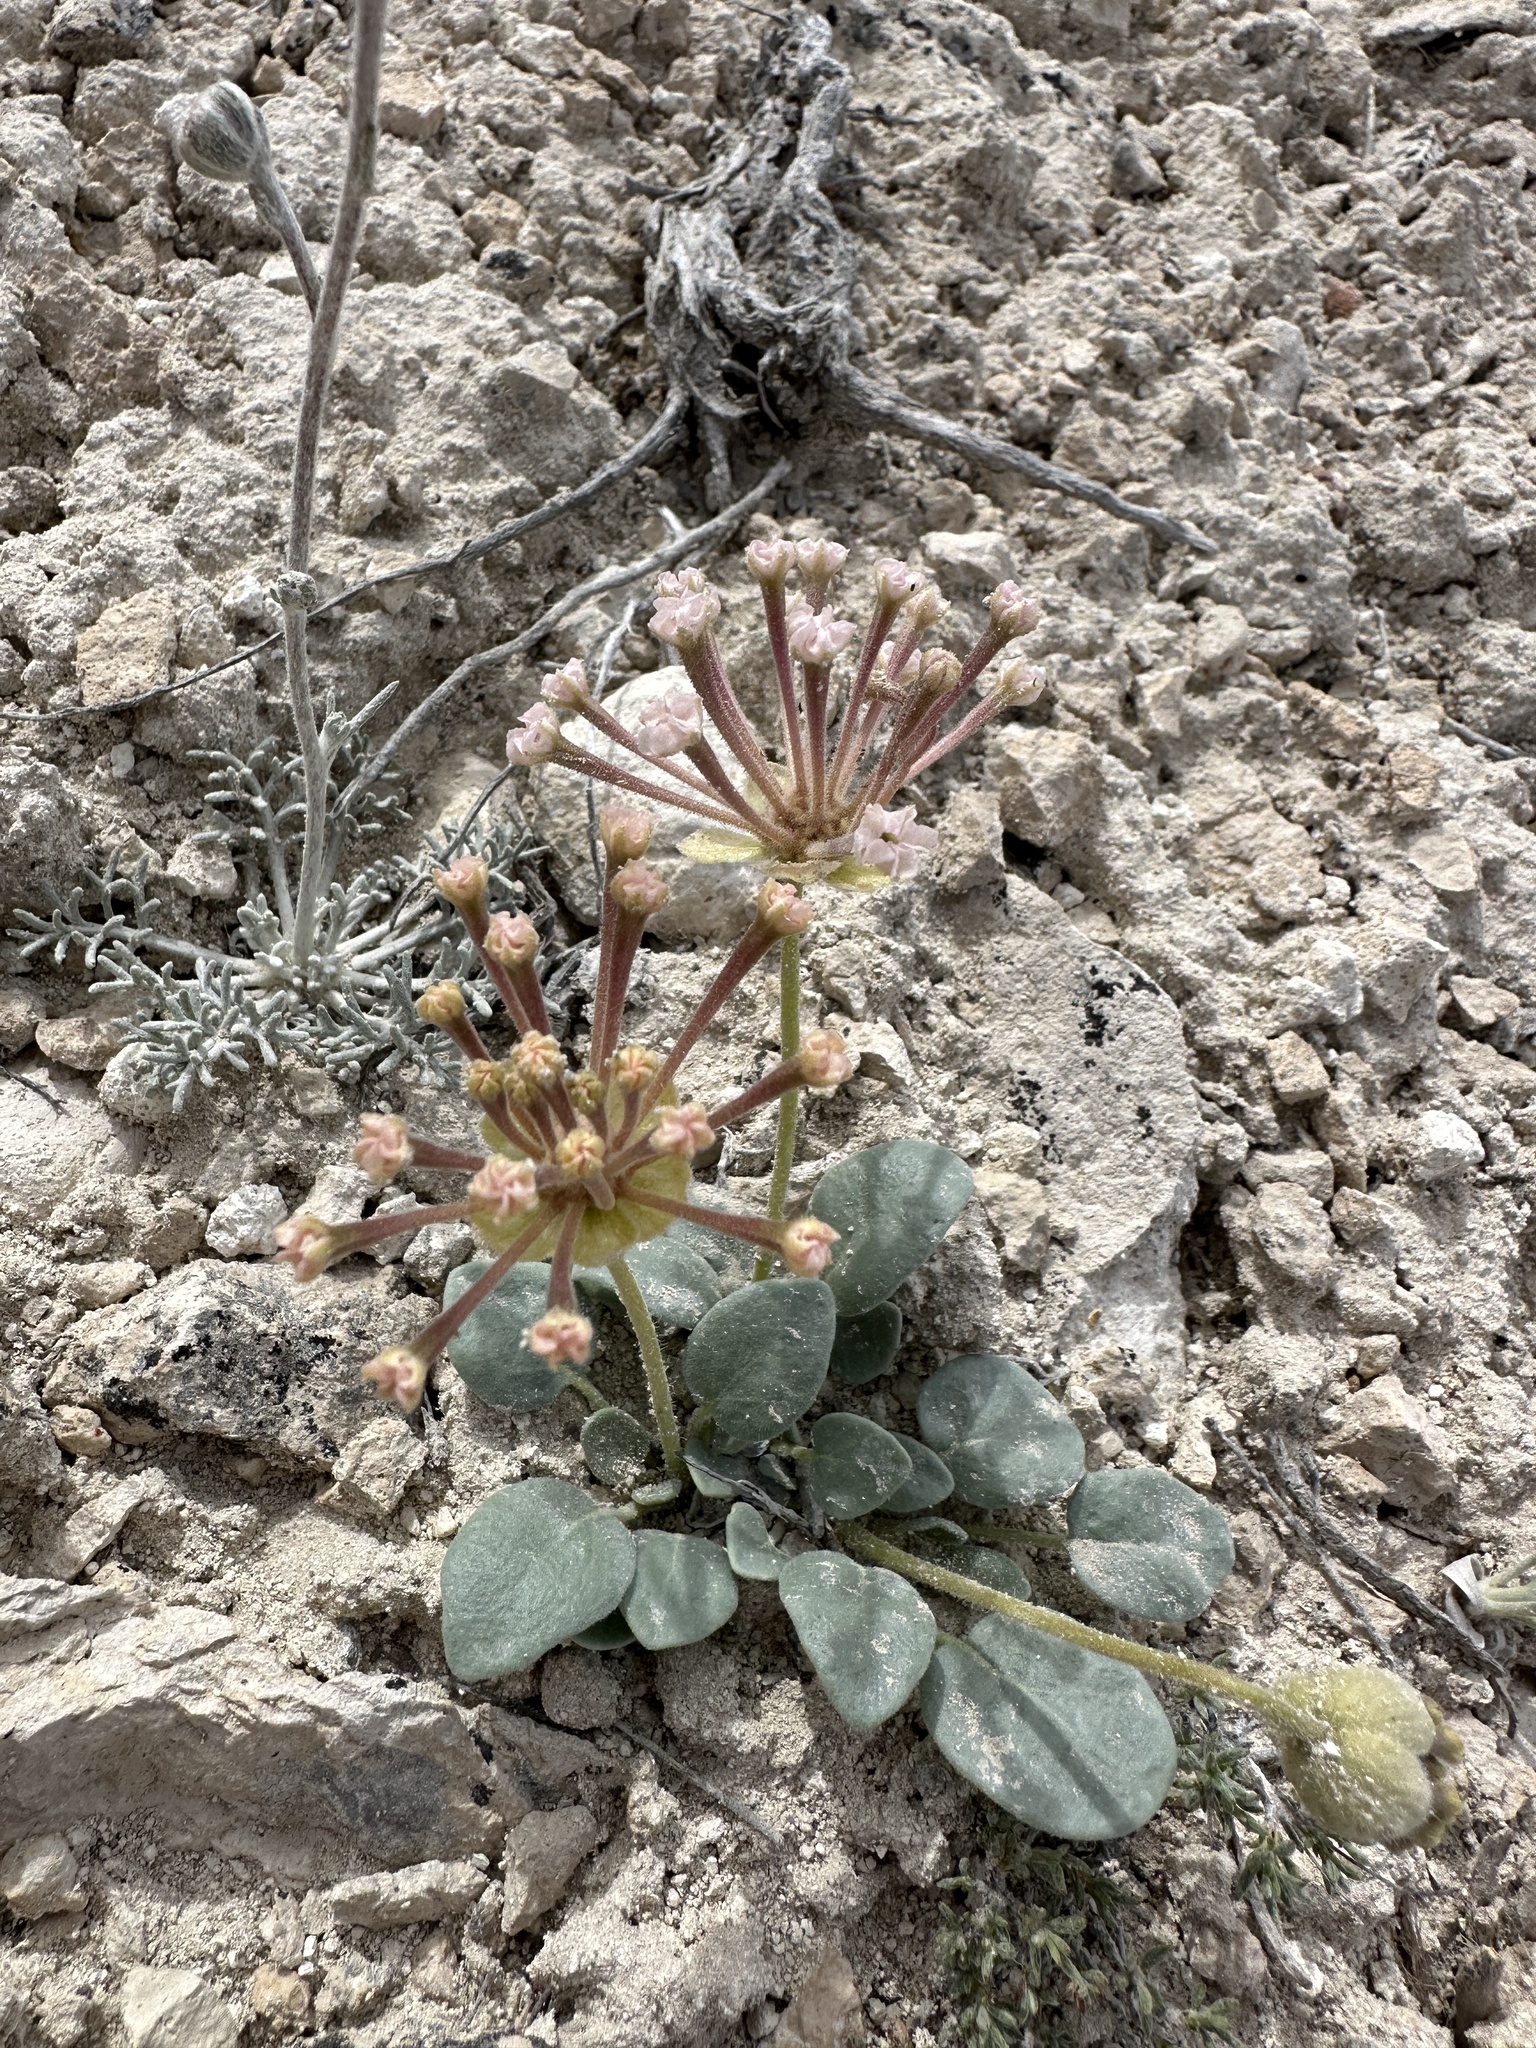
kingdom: Plantae
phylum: Tracheophyta
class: Magnoliopsida
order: Caryophyllales
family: Nyctaginaceae
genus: Abronia
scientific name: Abronia nana
